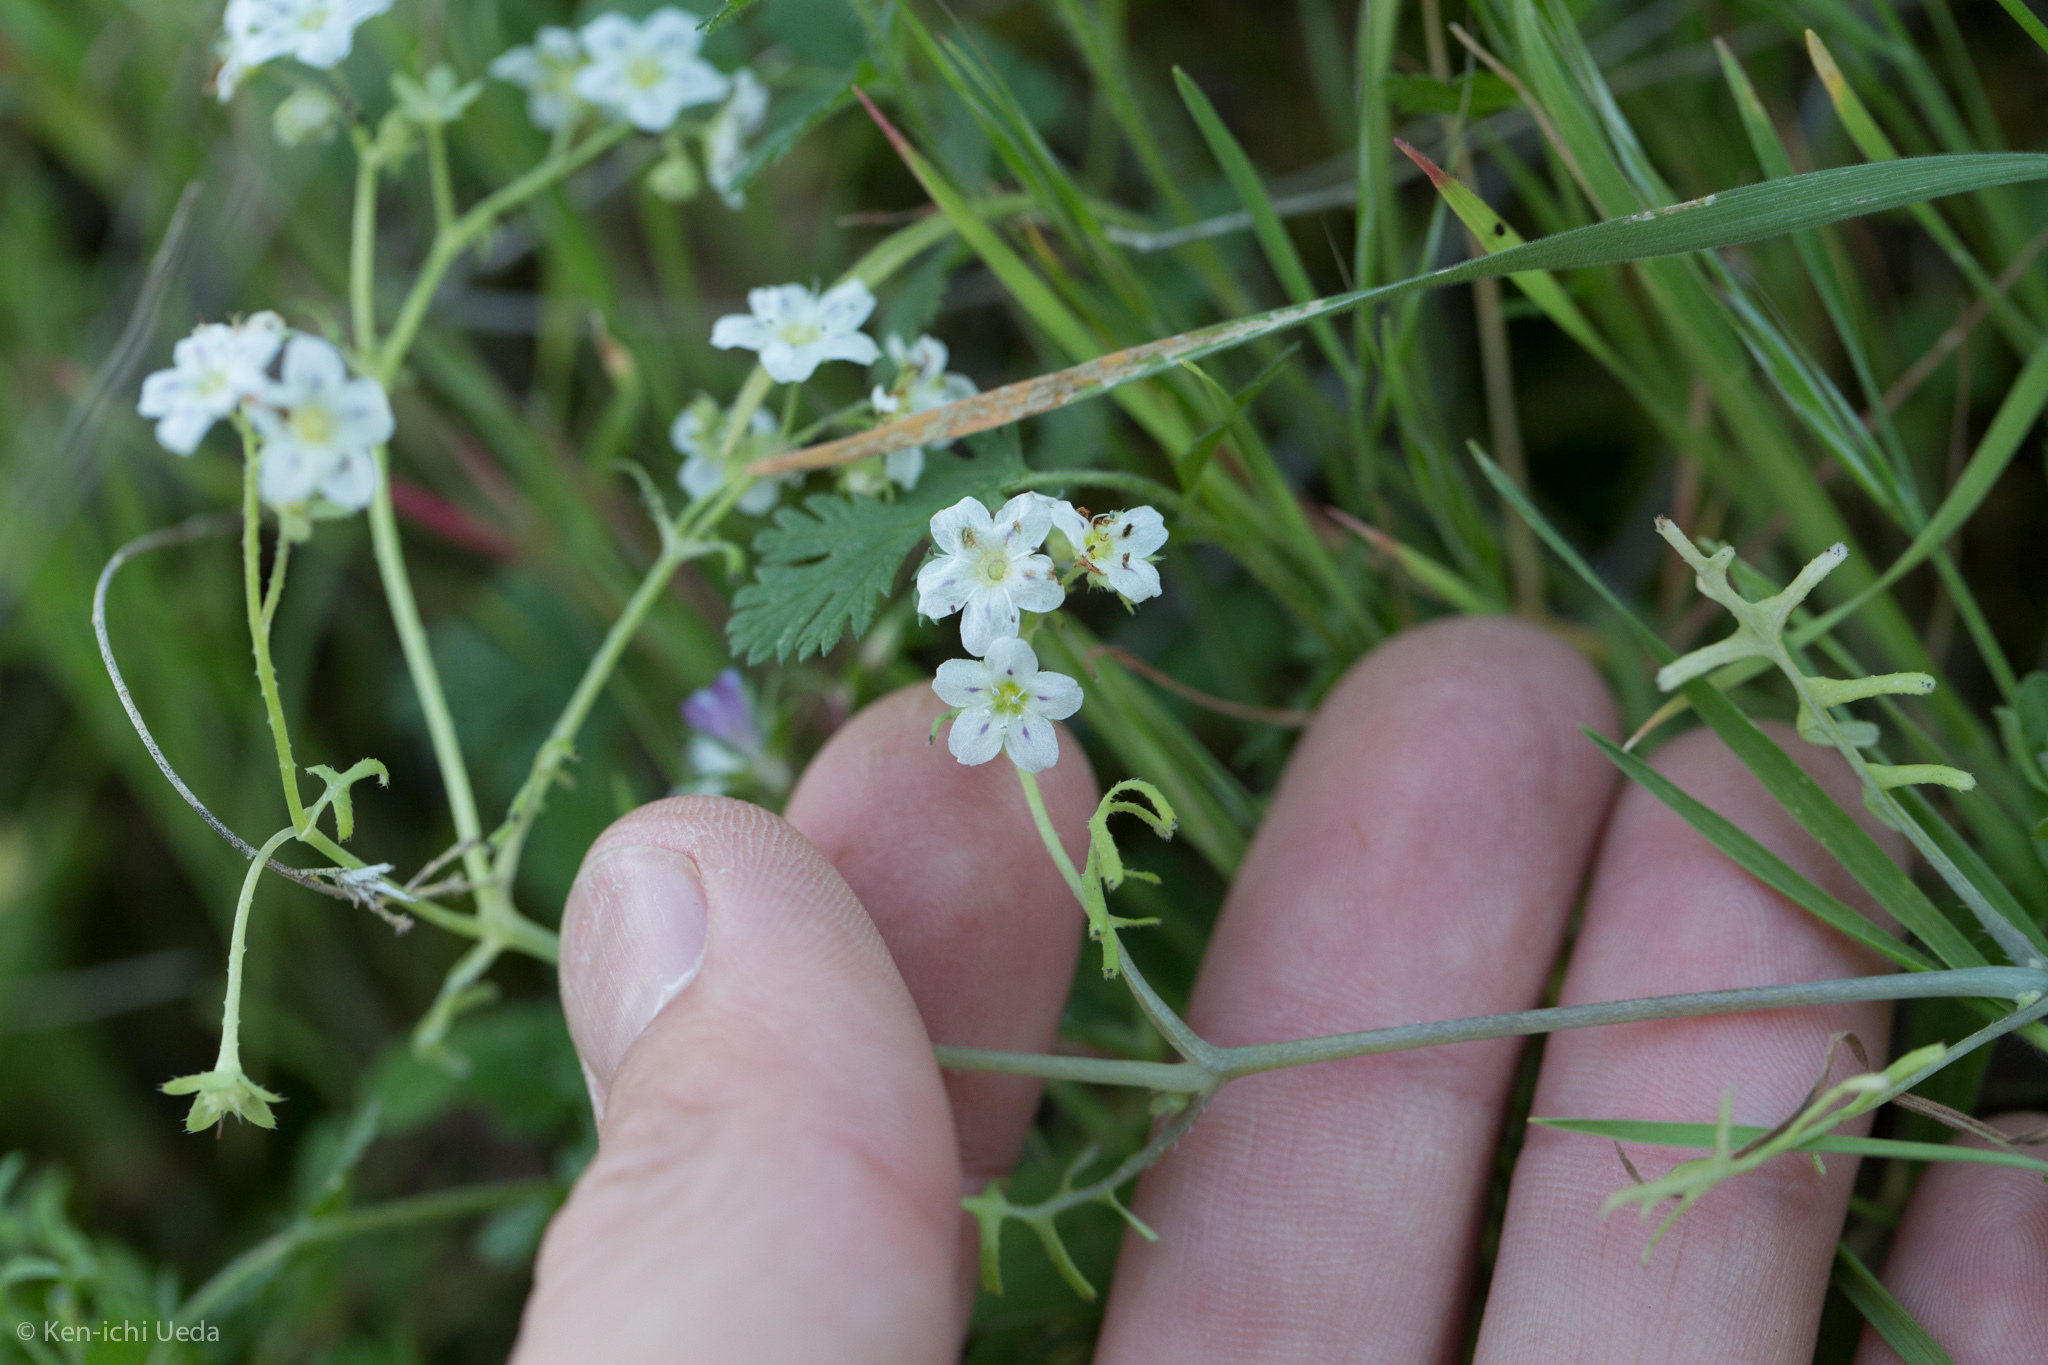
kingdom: Plantae
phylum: Tracheophyta
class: Magnoliopsida
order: Boraginales
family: Hydrophyllaceae
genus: Pholistoma
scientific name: Pholistoma membranaceum
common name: White fiesta-flower
